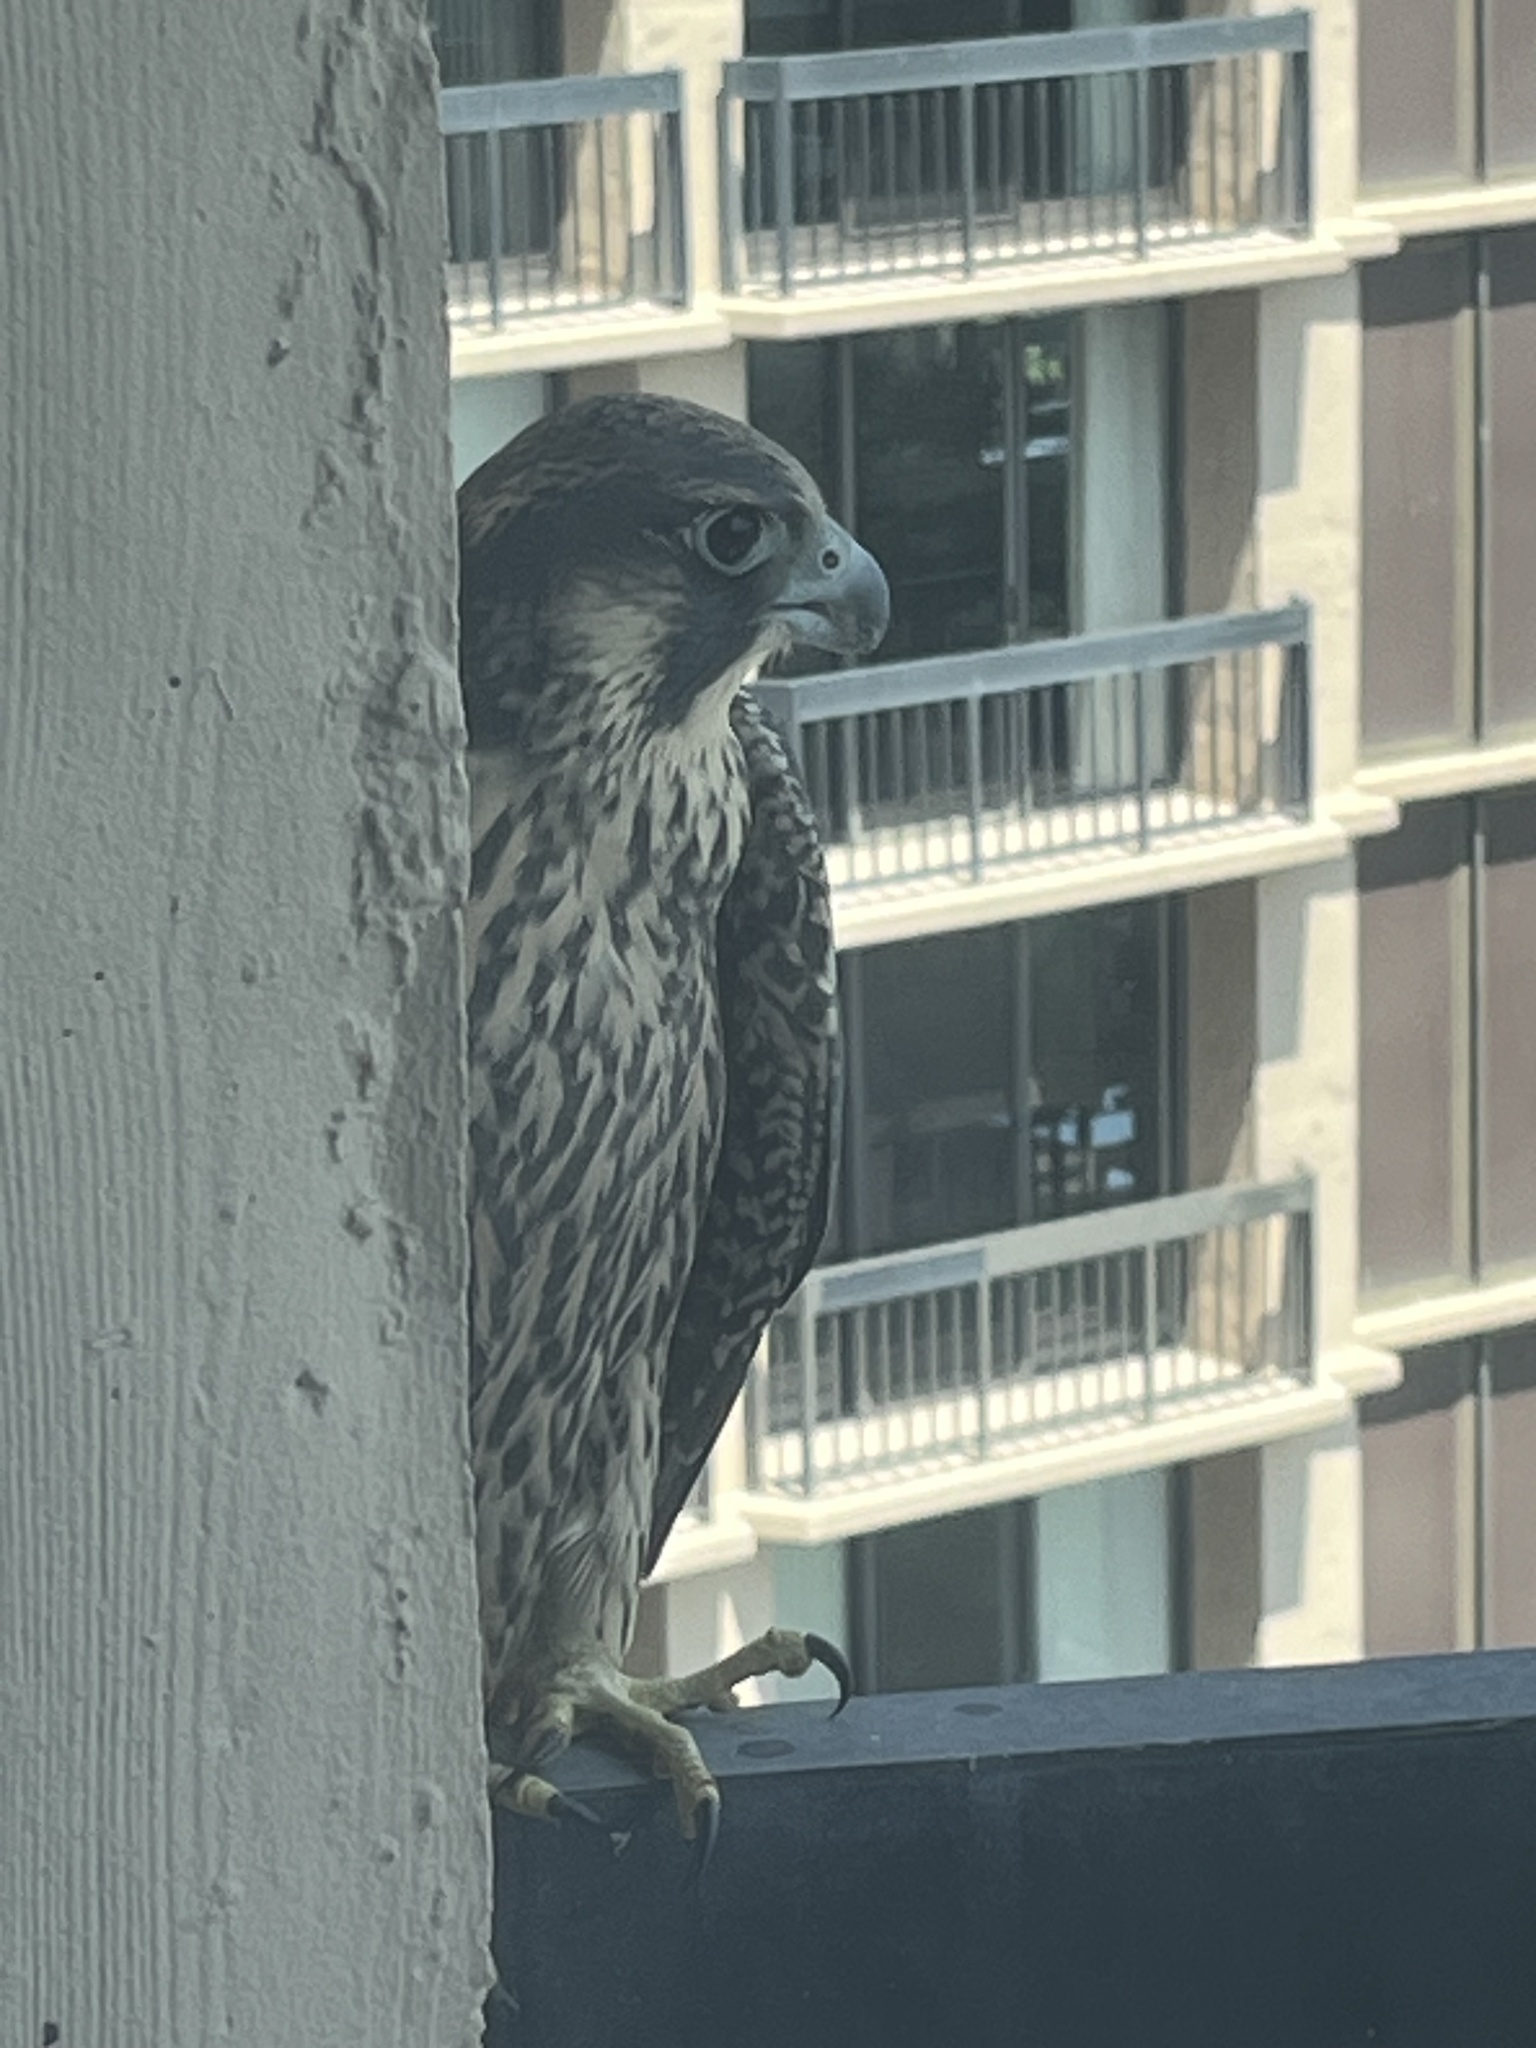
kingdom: Animalia
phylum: Chordata
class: Aves
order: Falconiformes
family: Falconidae
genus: Falco
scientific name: Falco peregrinus
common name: Peregrine falcon
